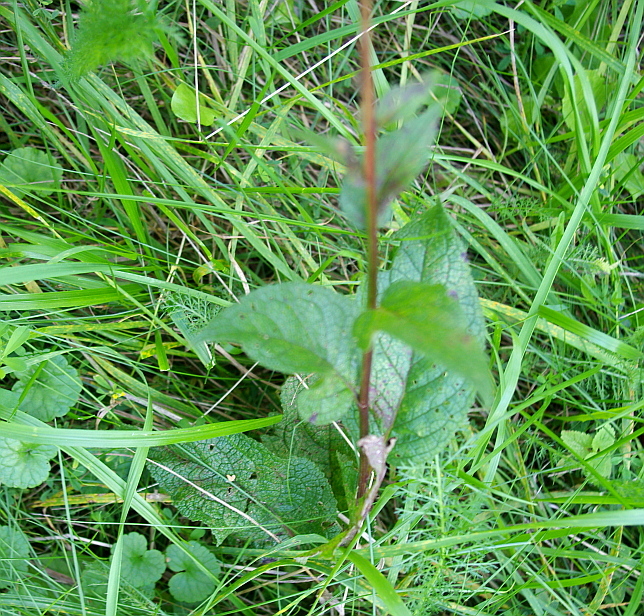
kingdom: Plantae
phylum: Tracheophyta
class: Magnoliopsida
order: Lamiales
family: Scrophulariaceae
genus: Verbascum
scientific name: Verbascum nigrum
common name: Dark mullein
